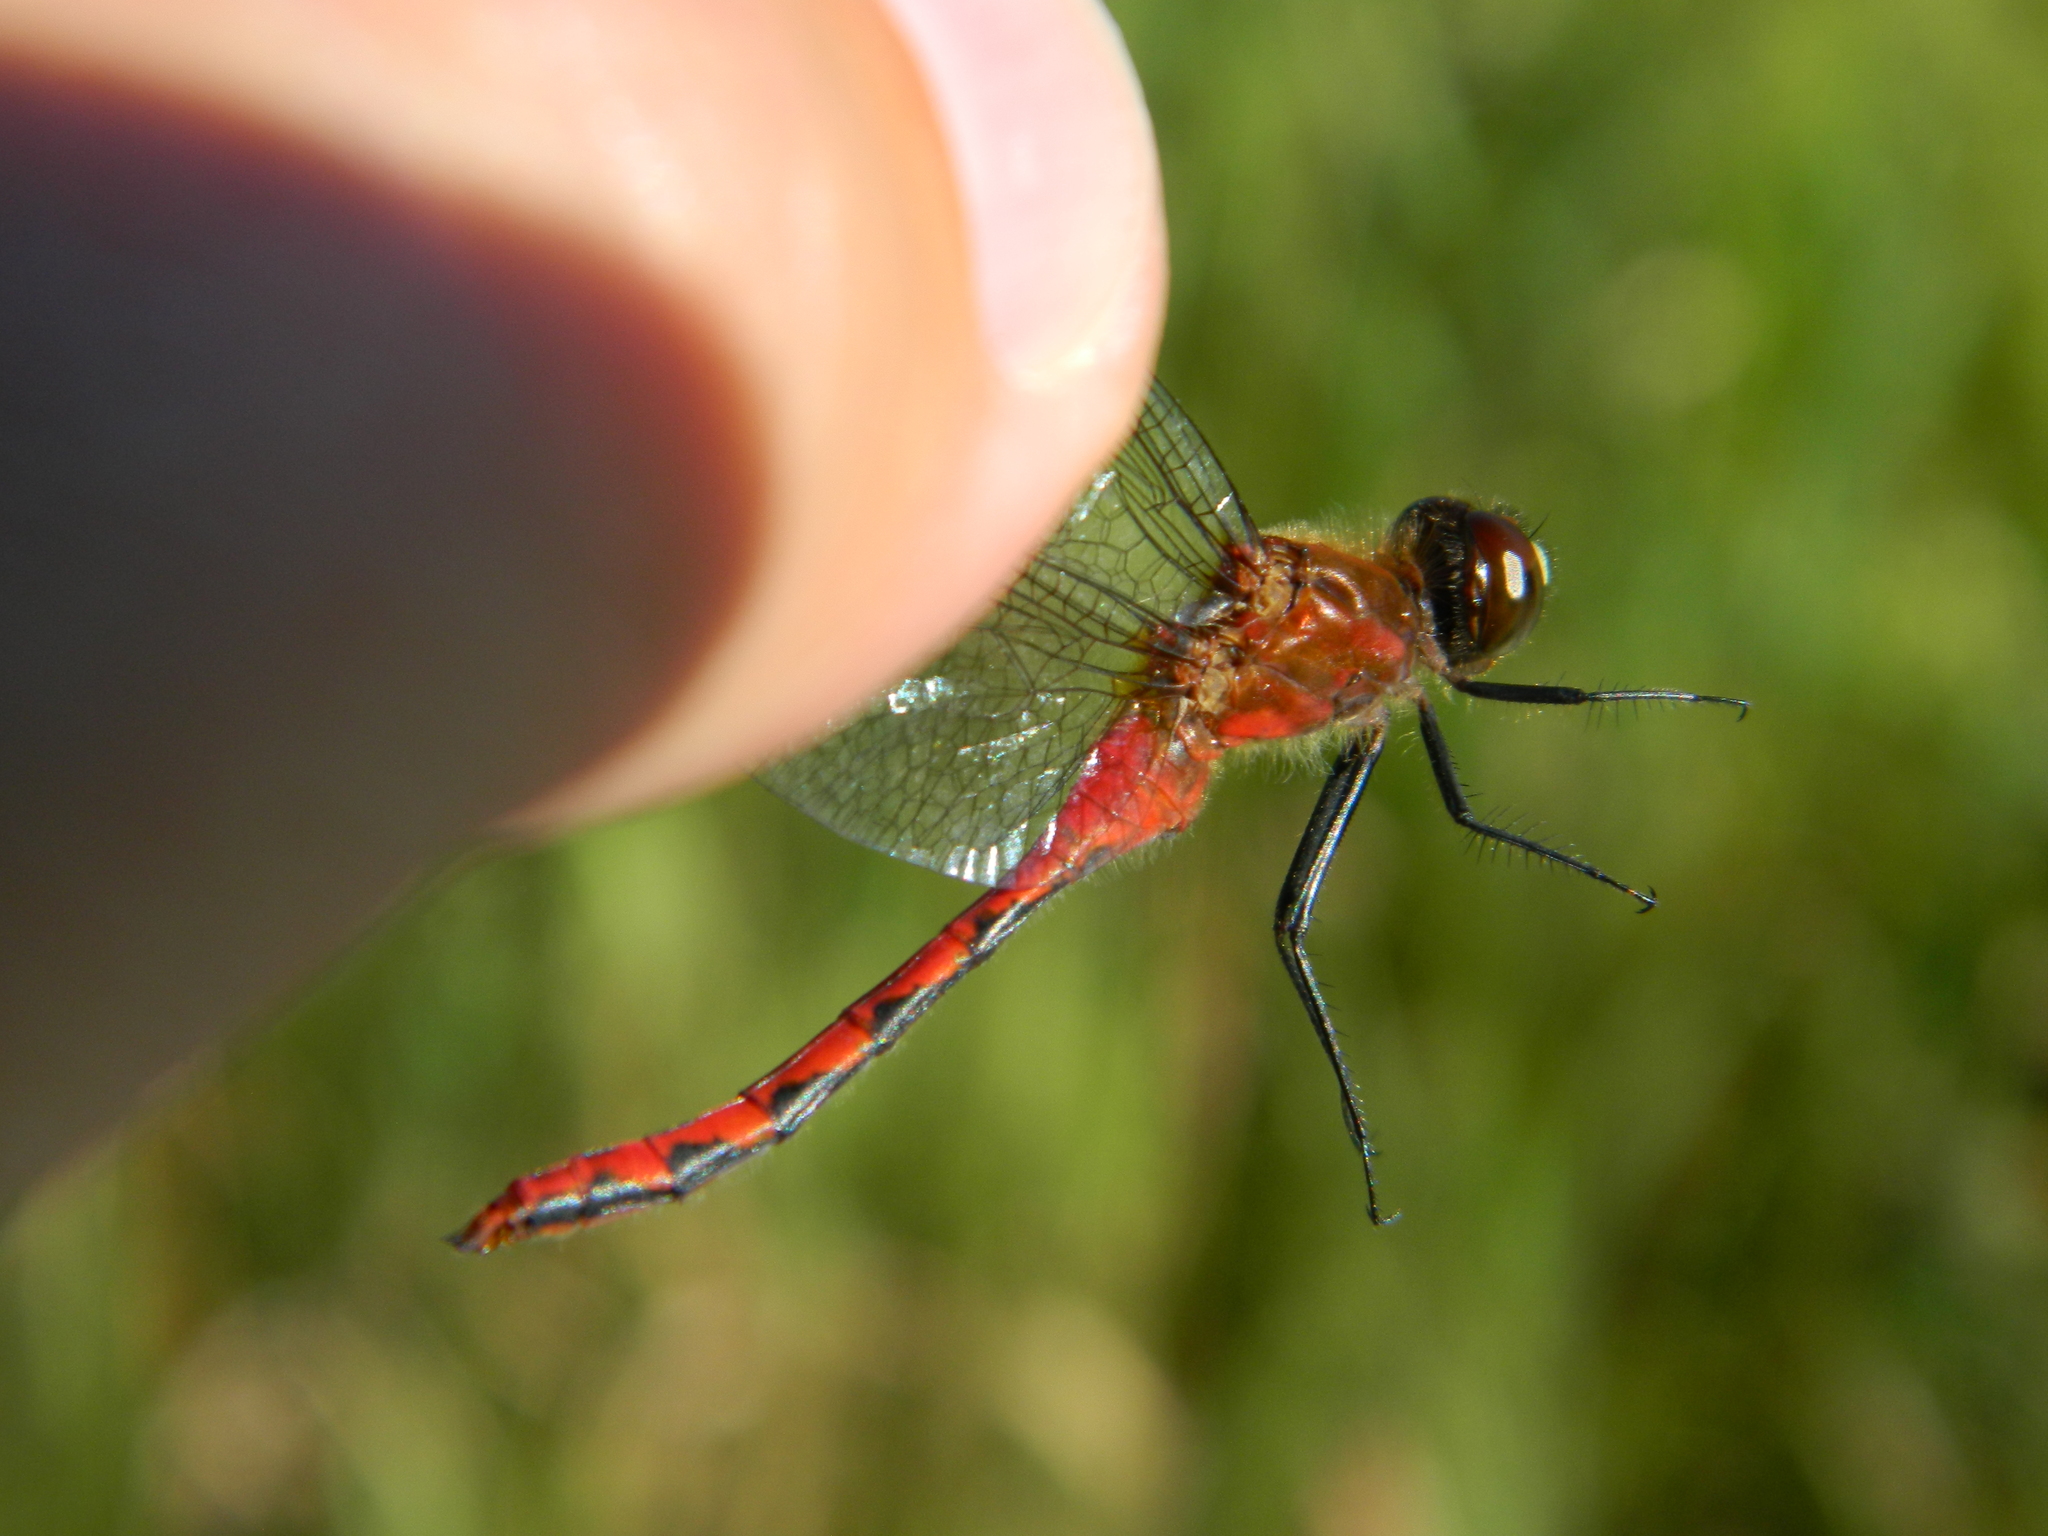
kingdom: Animalia
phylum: Arthropoda
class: Insecta
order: Odonata
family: Libellulidae
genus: Sympetrum
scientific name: Sympetrum obtrusum
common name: White-faced meadowhawk
